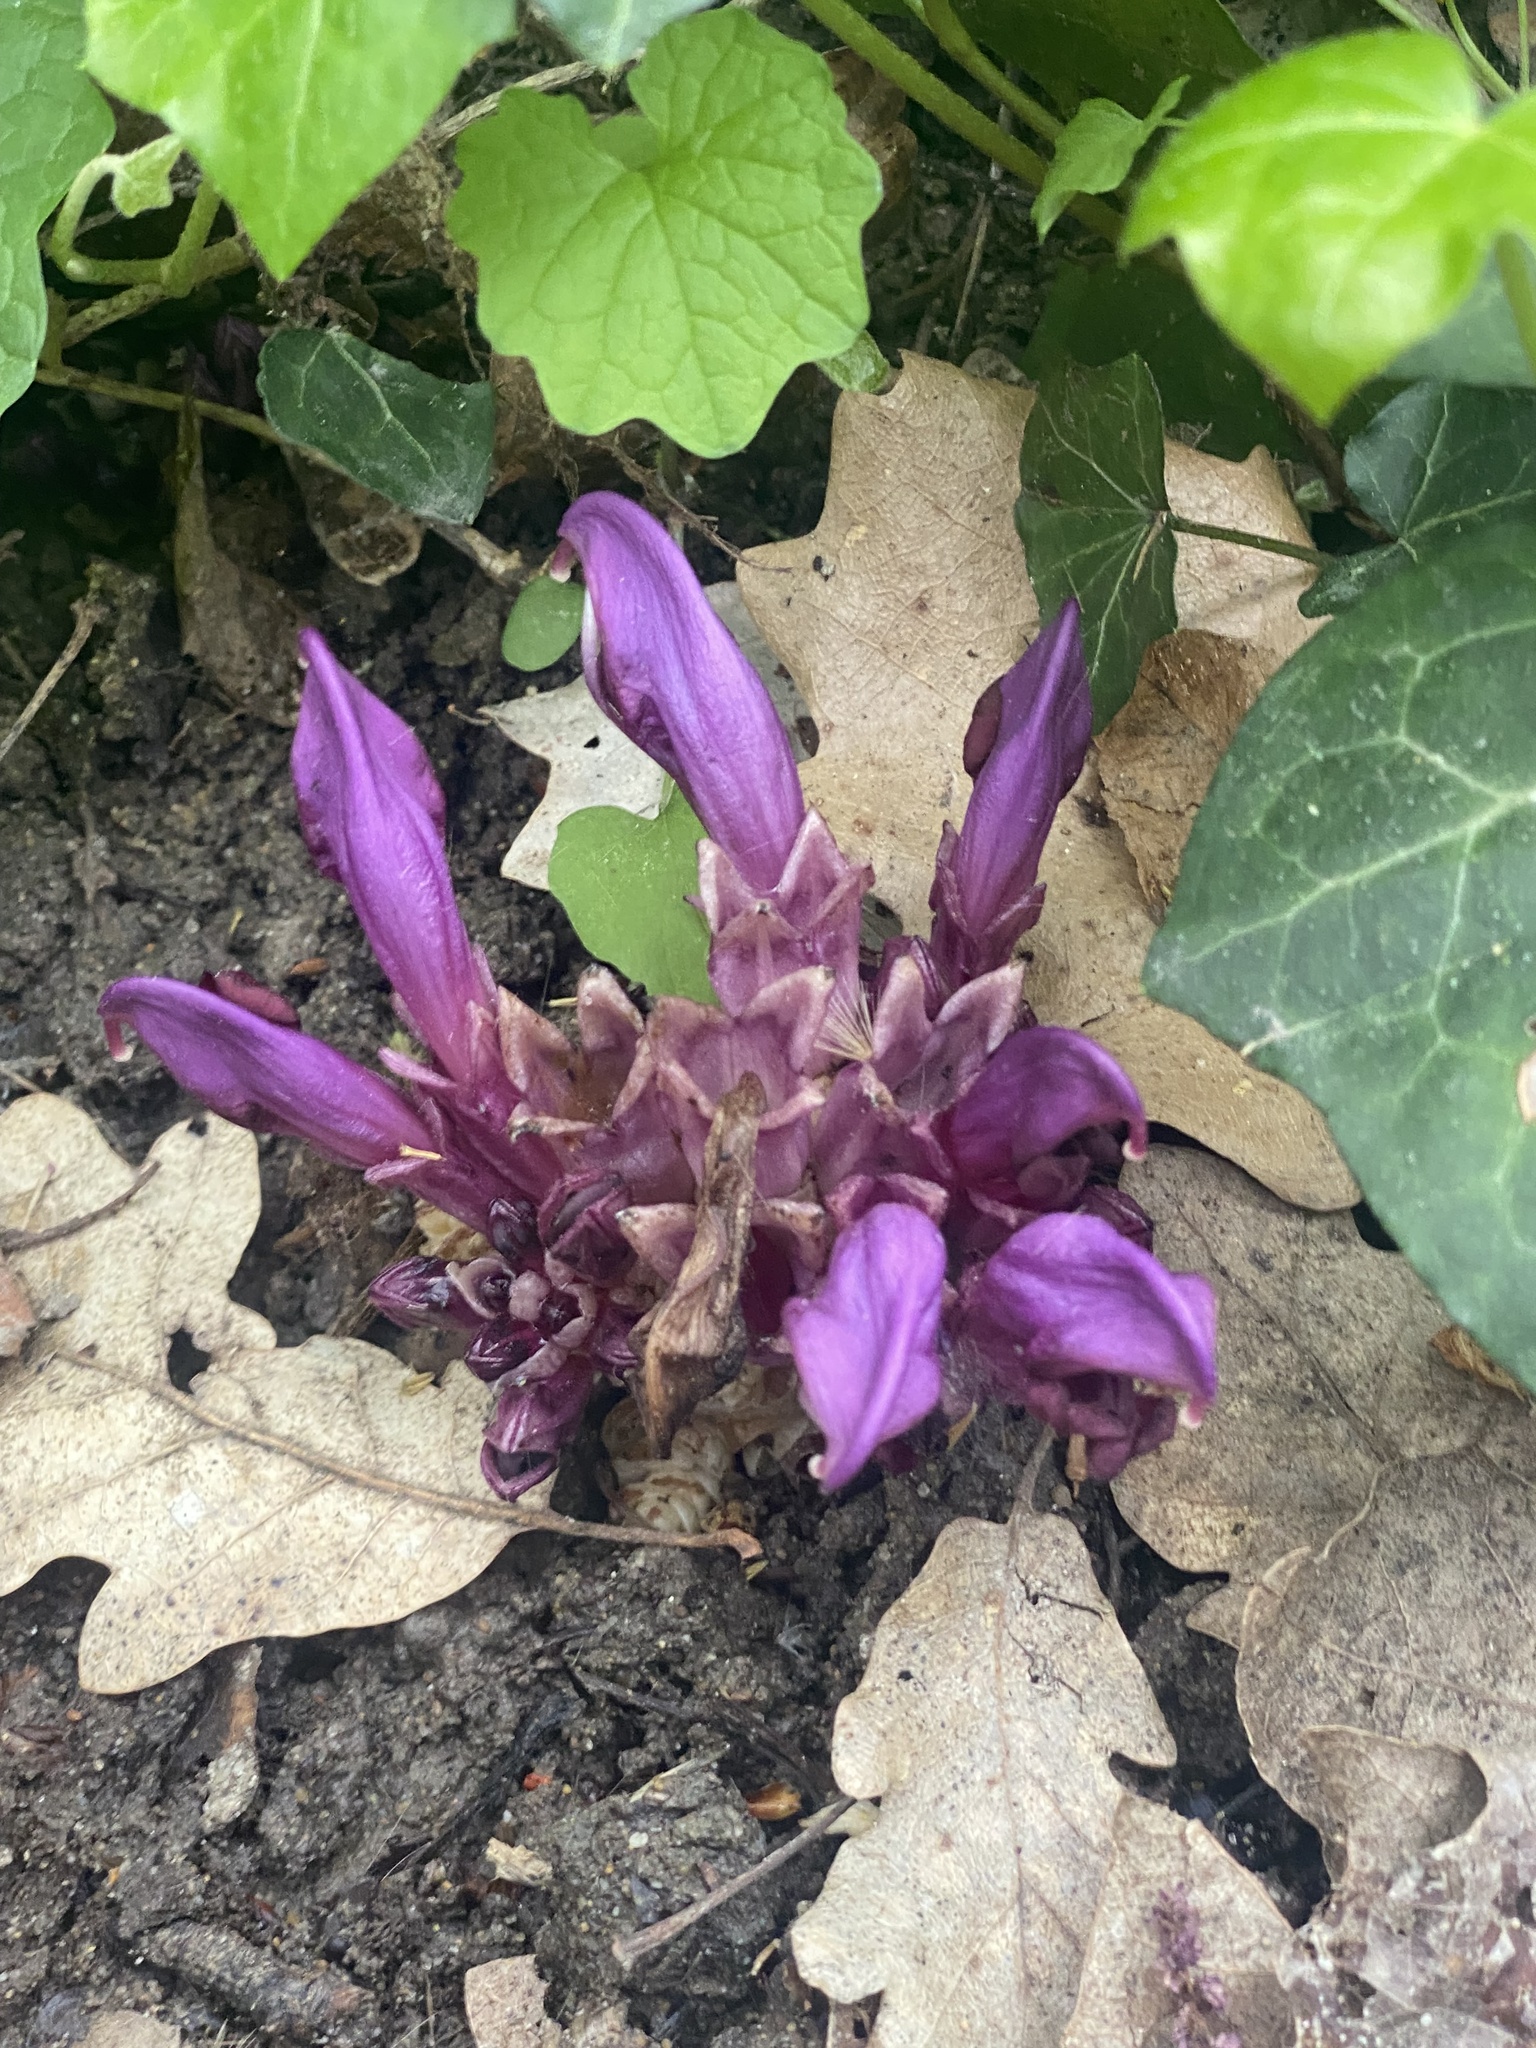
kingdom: Plantae
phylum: Tracheophyta
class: Magnoliopsida
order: Lamiales
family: Orobanchaceae
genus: Lathraea
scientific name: Lathraea clandestina
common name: Purple toothwort
